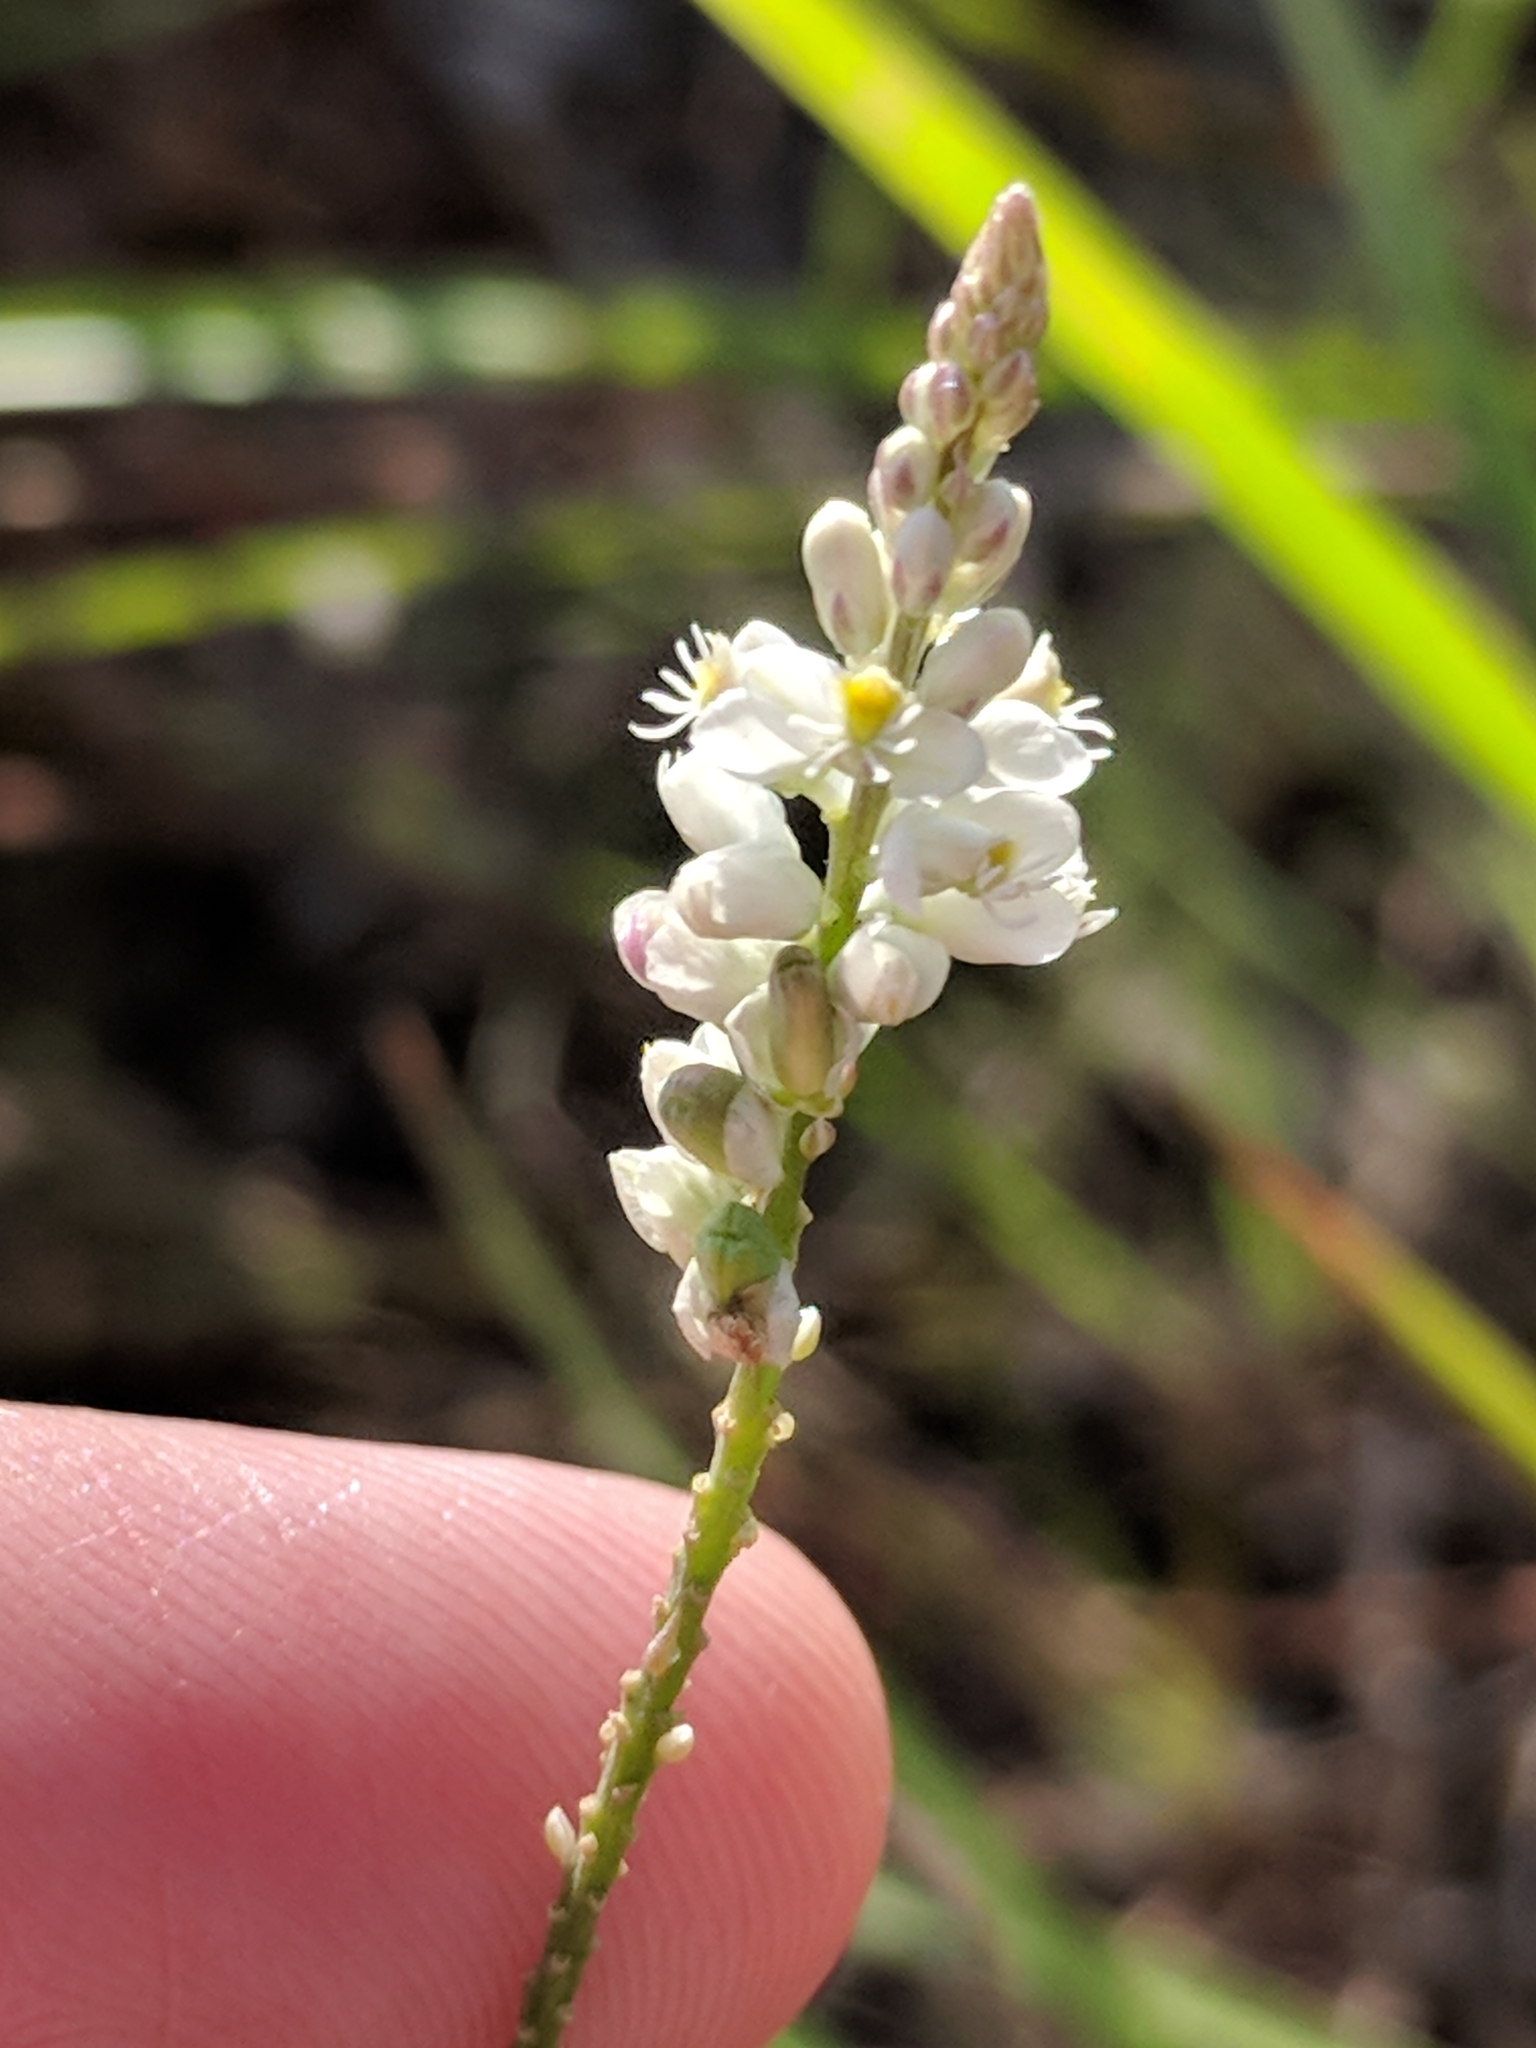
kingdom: Plantae
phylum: Tracheophyta
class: Magnoliopsida
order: Fabales
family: Polygalaceae
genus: Polygala
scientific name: Polygala alba
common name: White milkwort
